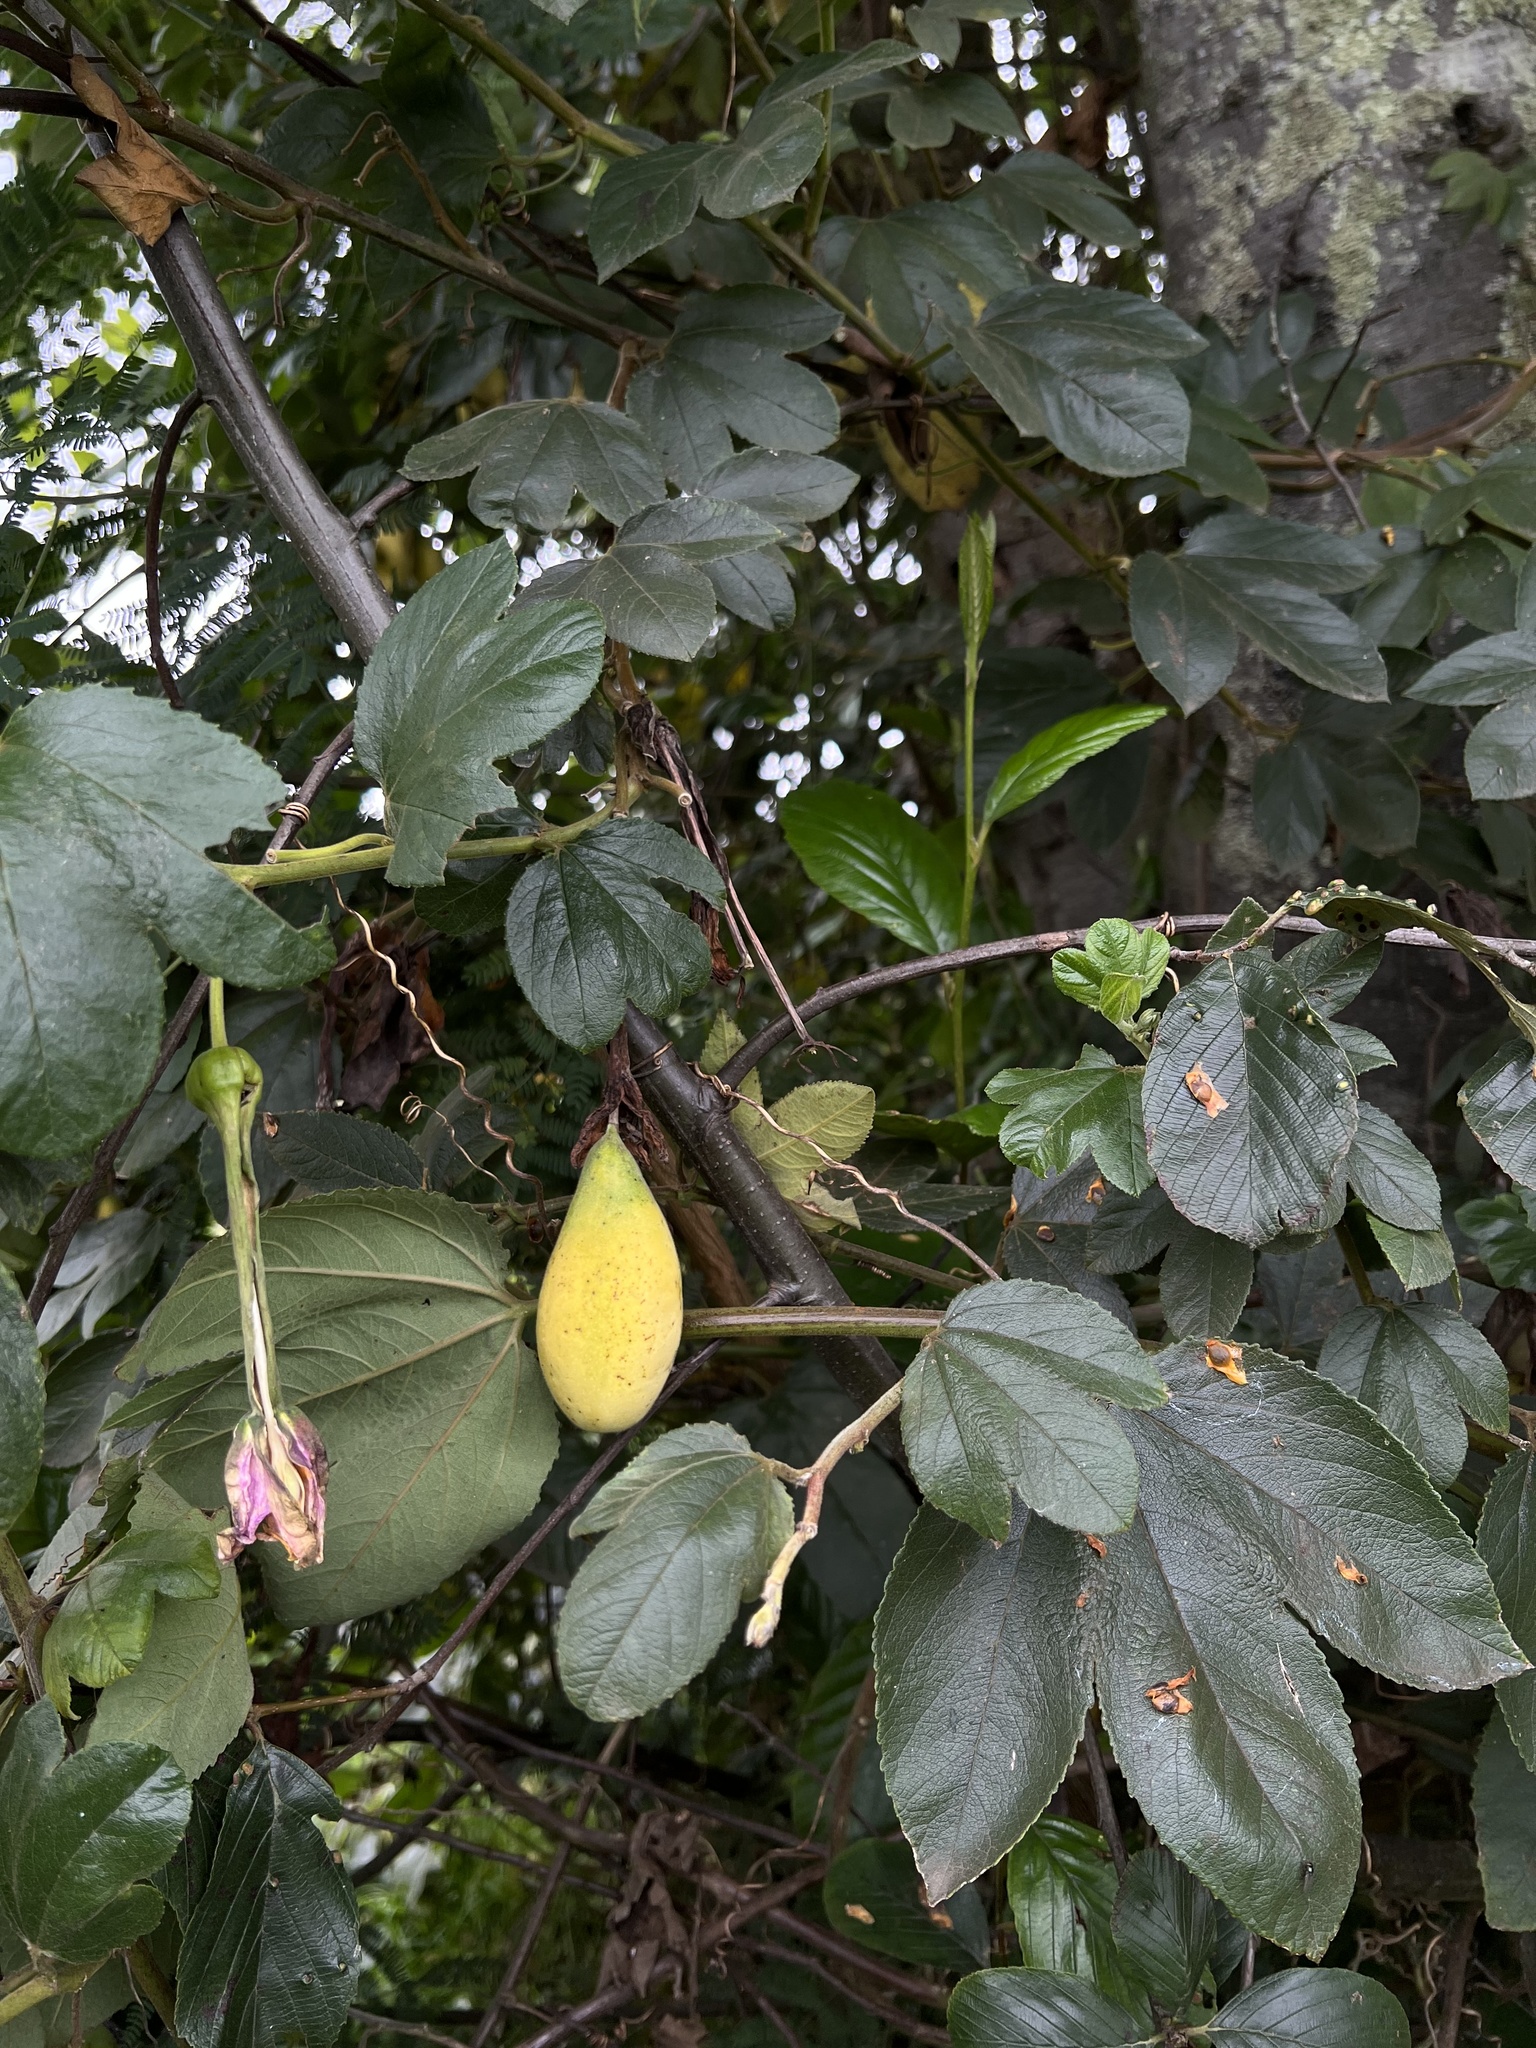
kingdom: Plantae
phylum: Tracheophyta
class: Magnoliopsida
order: Malpighiales
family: Passifloraceae
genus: Passiflora
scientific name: Passiflora tripartita
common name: Banana poka
